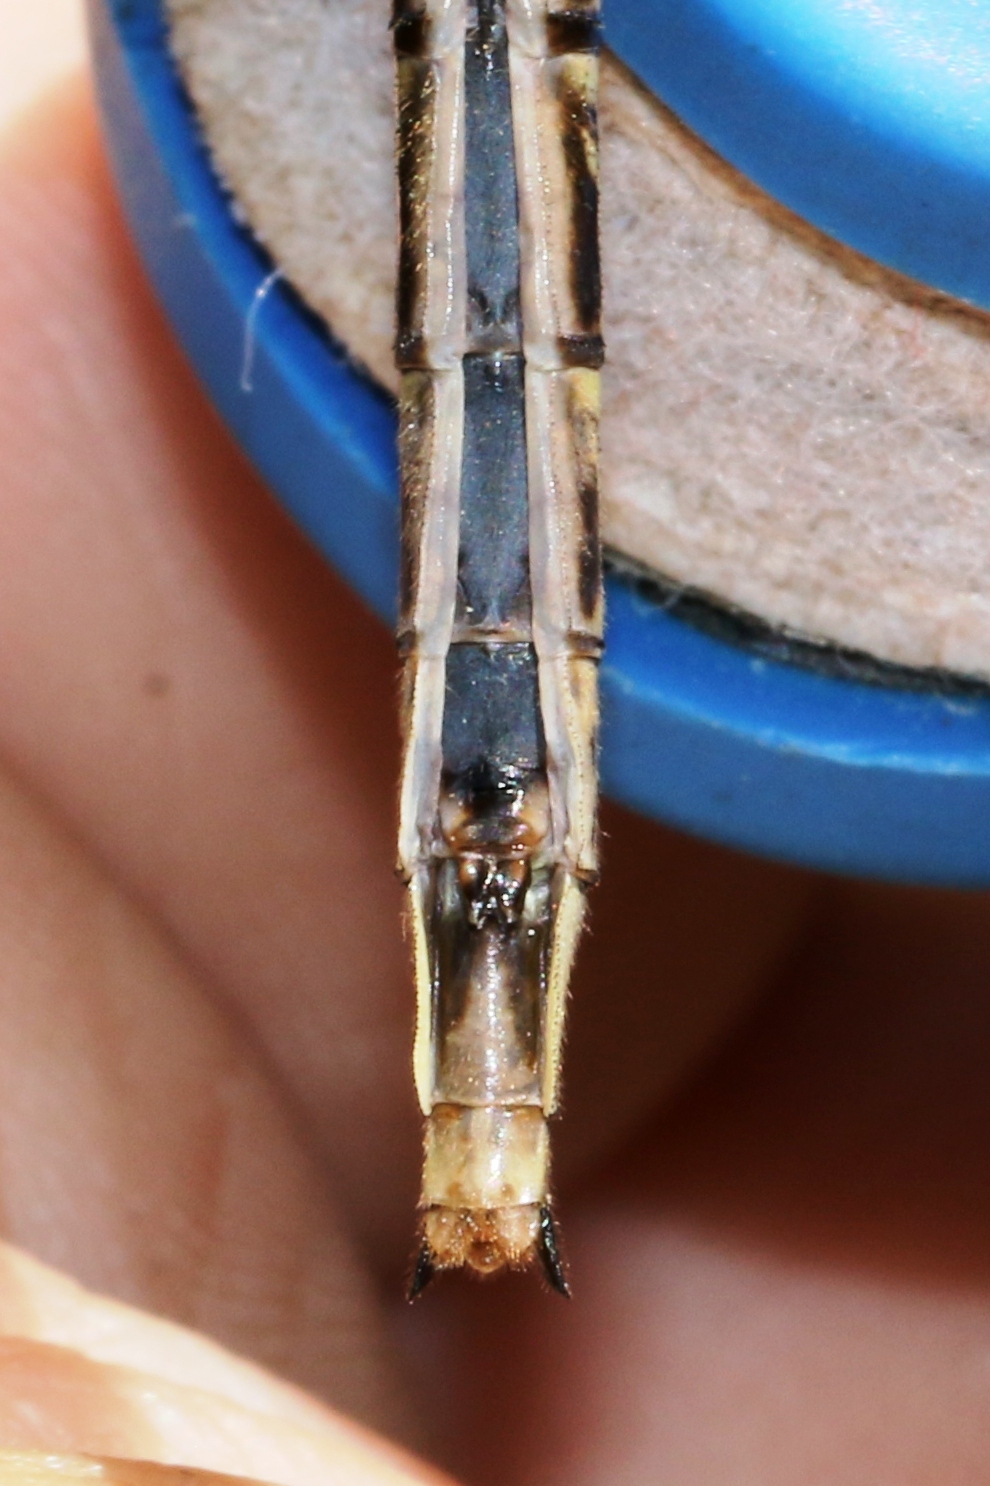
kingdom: Animalia
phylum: Arthropoda
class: Insecta
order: Odonata
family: Gomphidae
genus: Phanogomphus
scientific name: Phanogomphus spicatus
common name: Dusky clubtail
